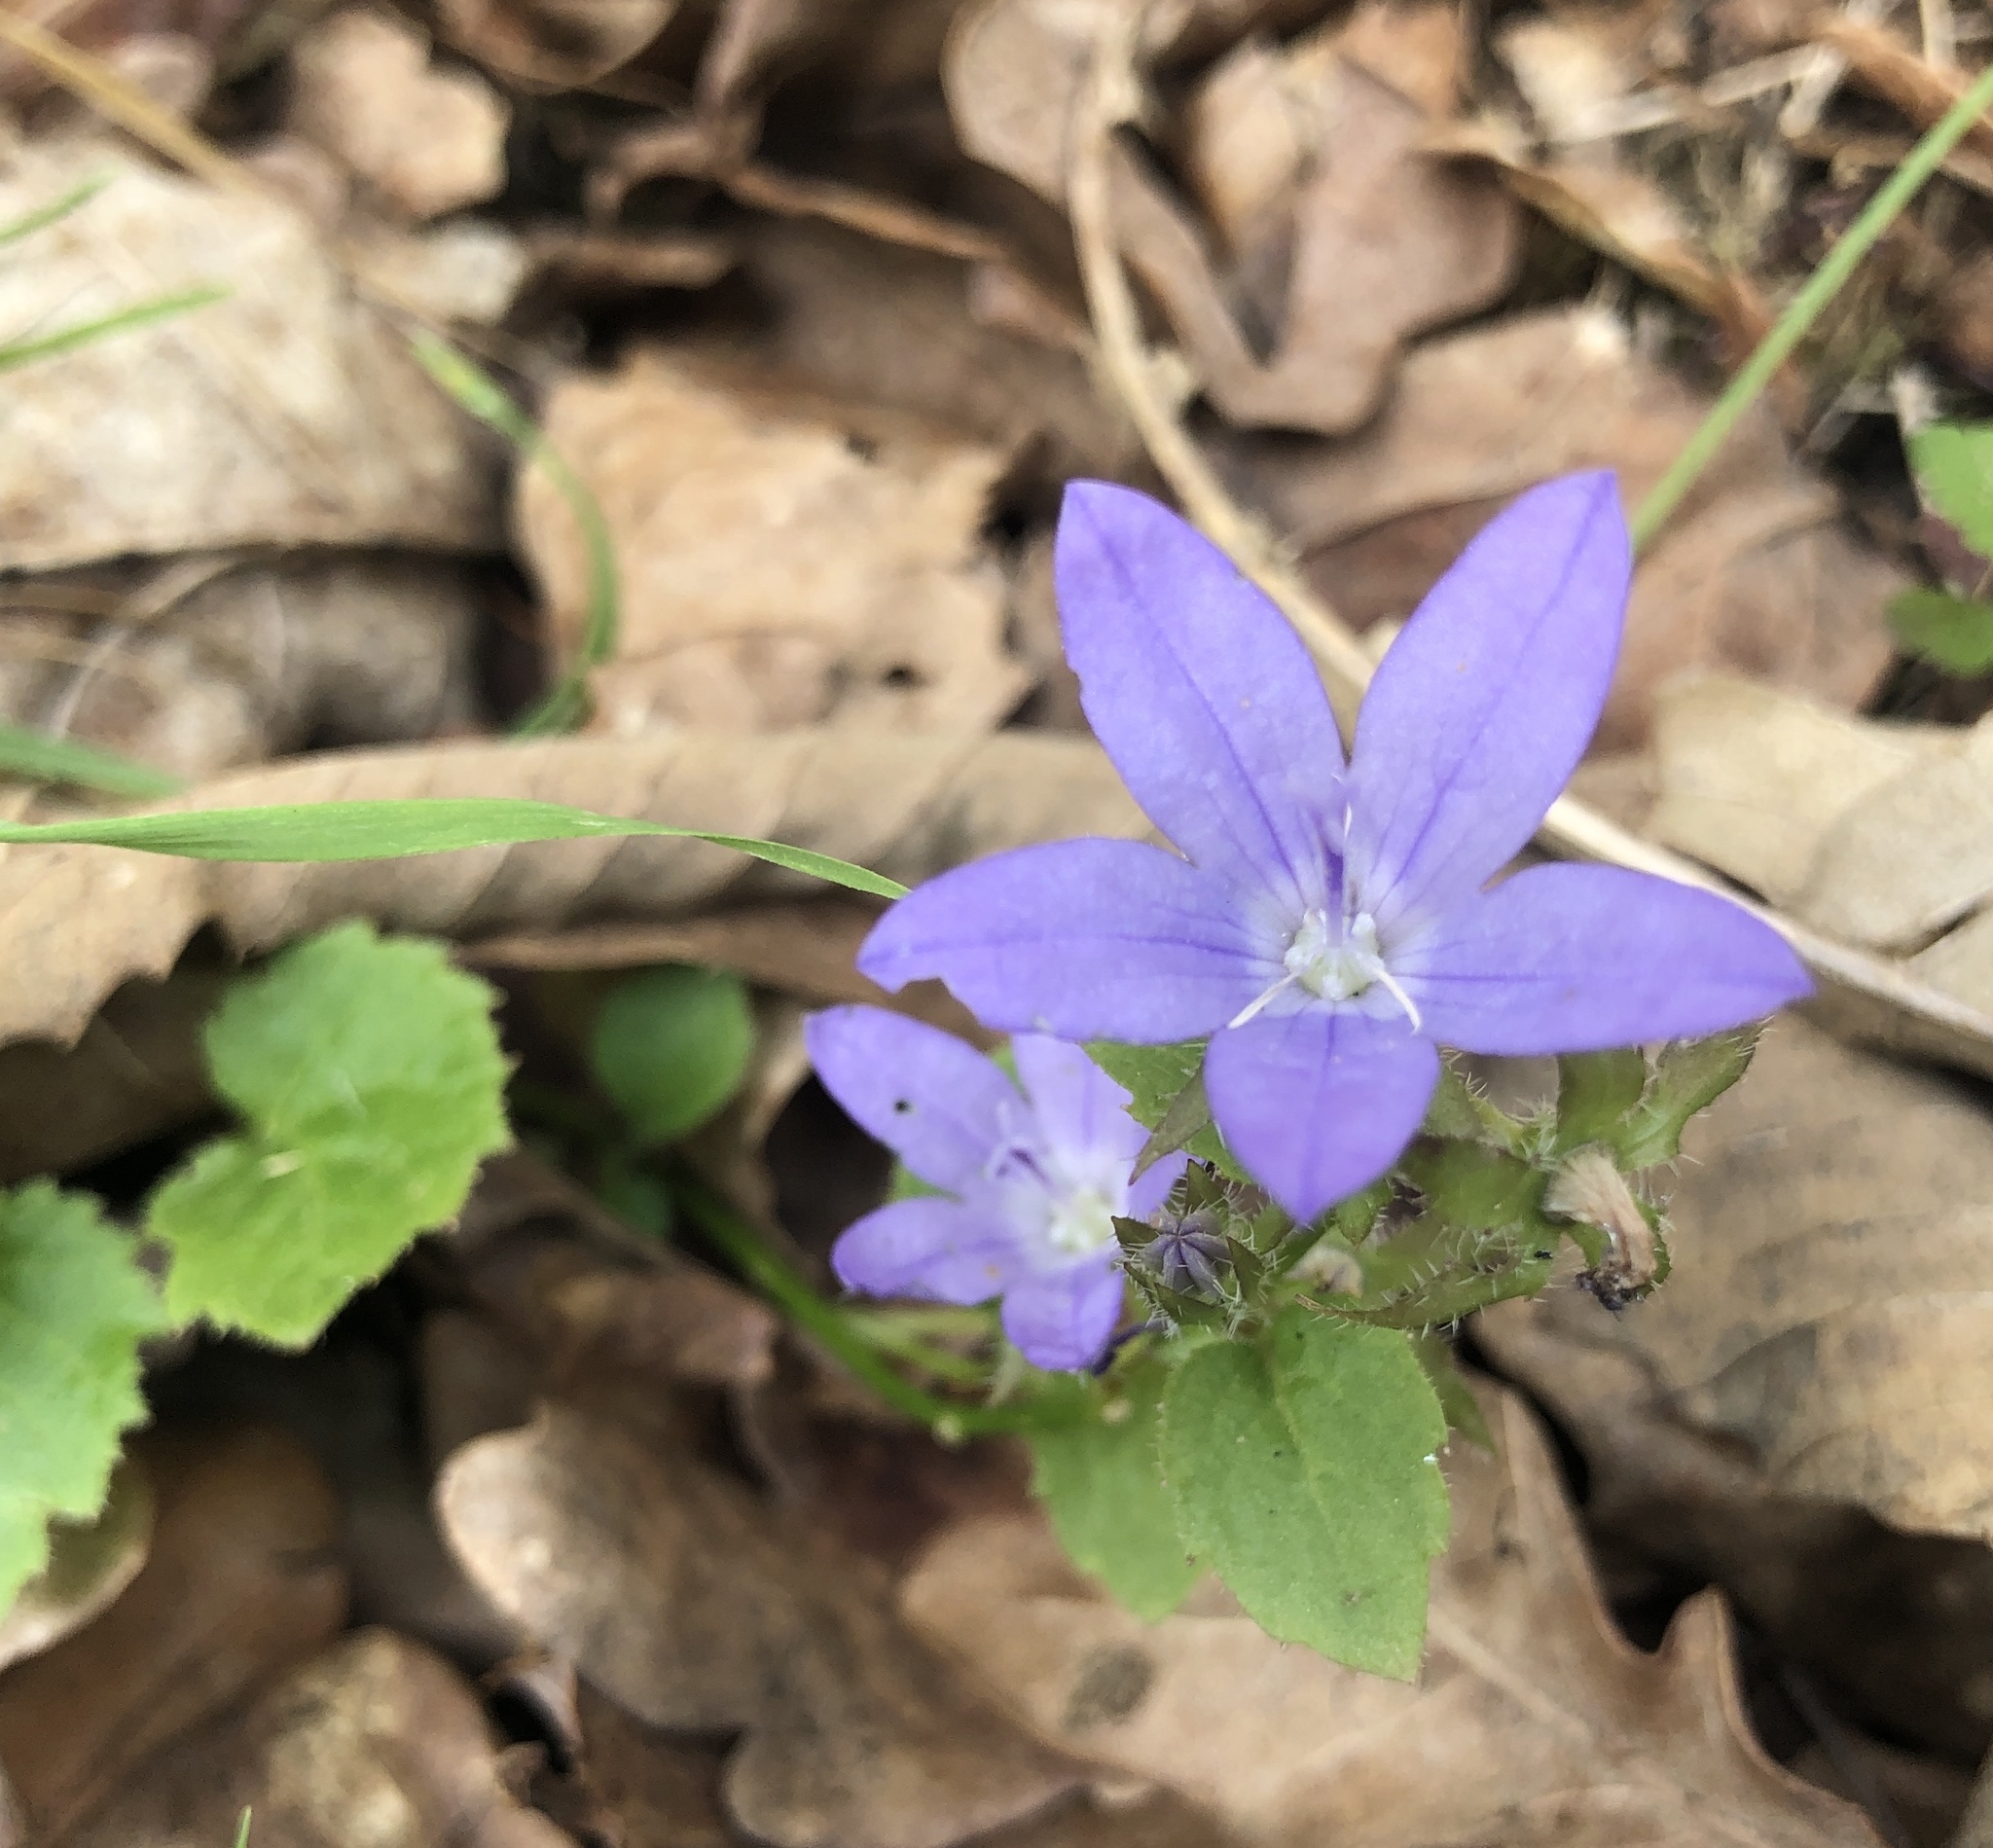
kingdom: Plantae
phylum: Tracheophyta
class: Magnoliopsida
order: Asterales
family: Campanulaceae
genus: Campanula
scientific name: Campanula poscharskyana
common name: Trailing bellflower
